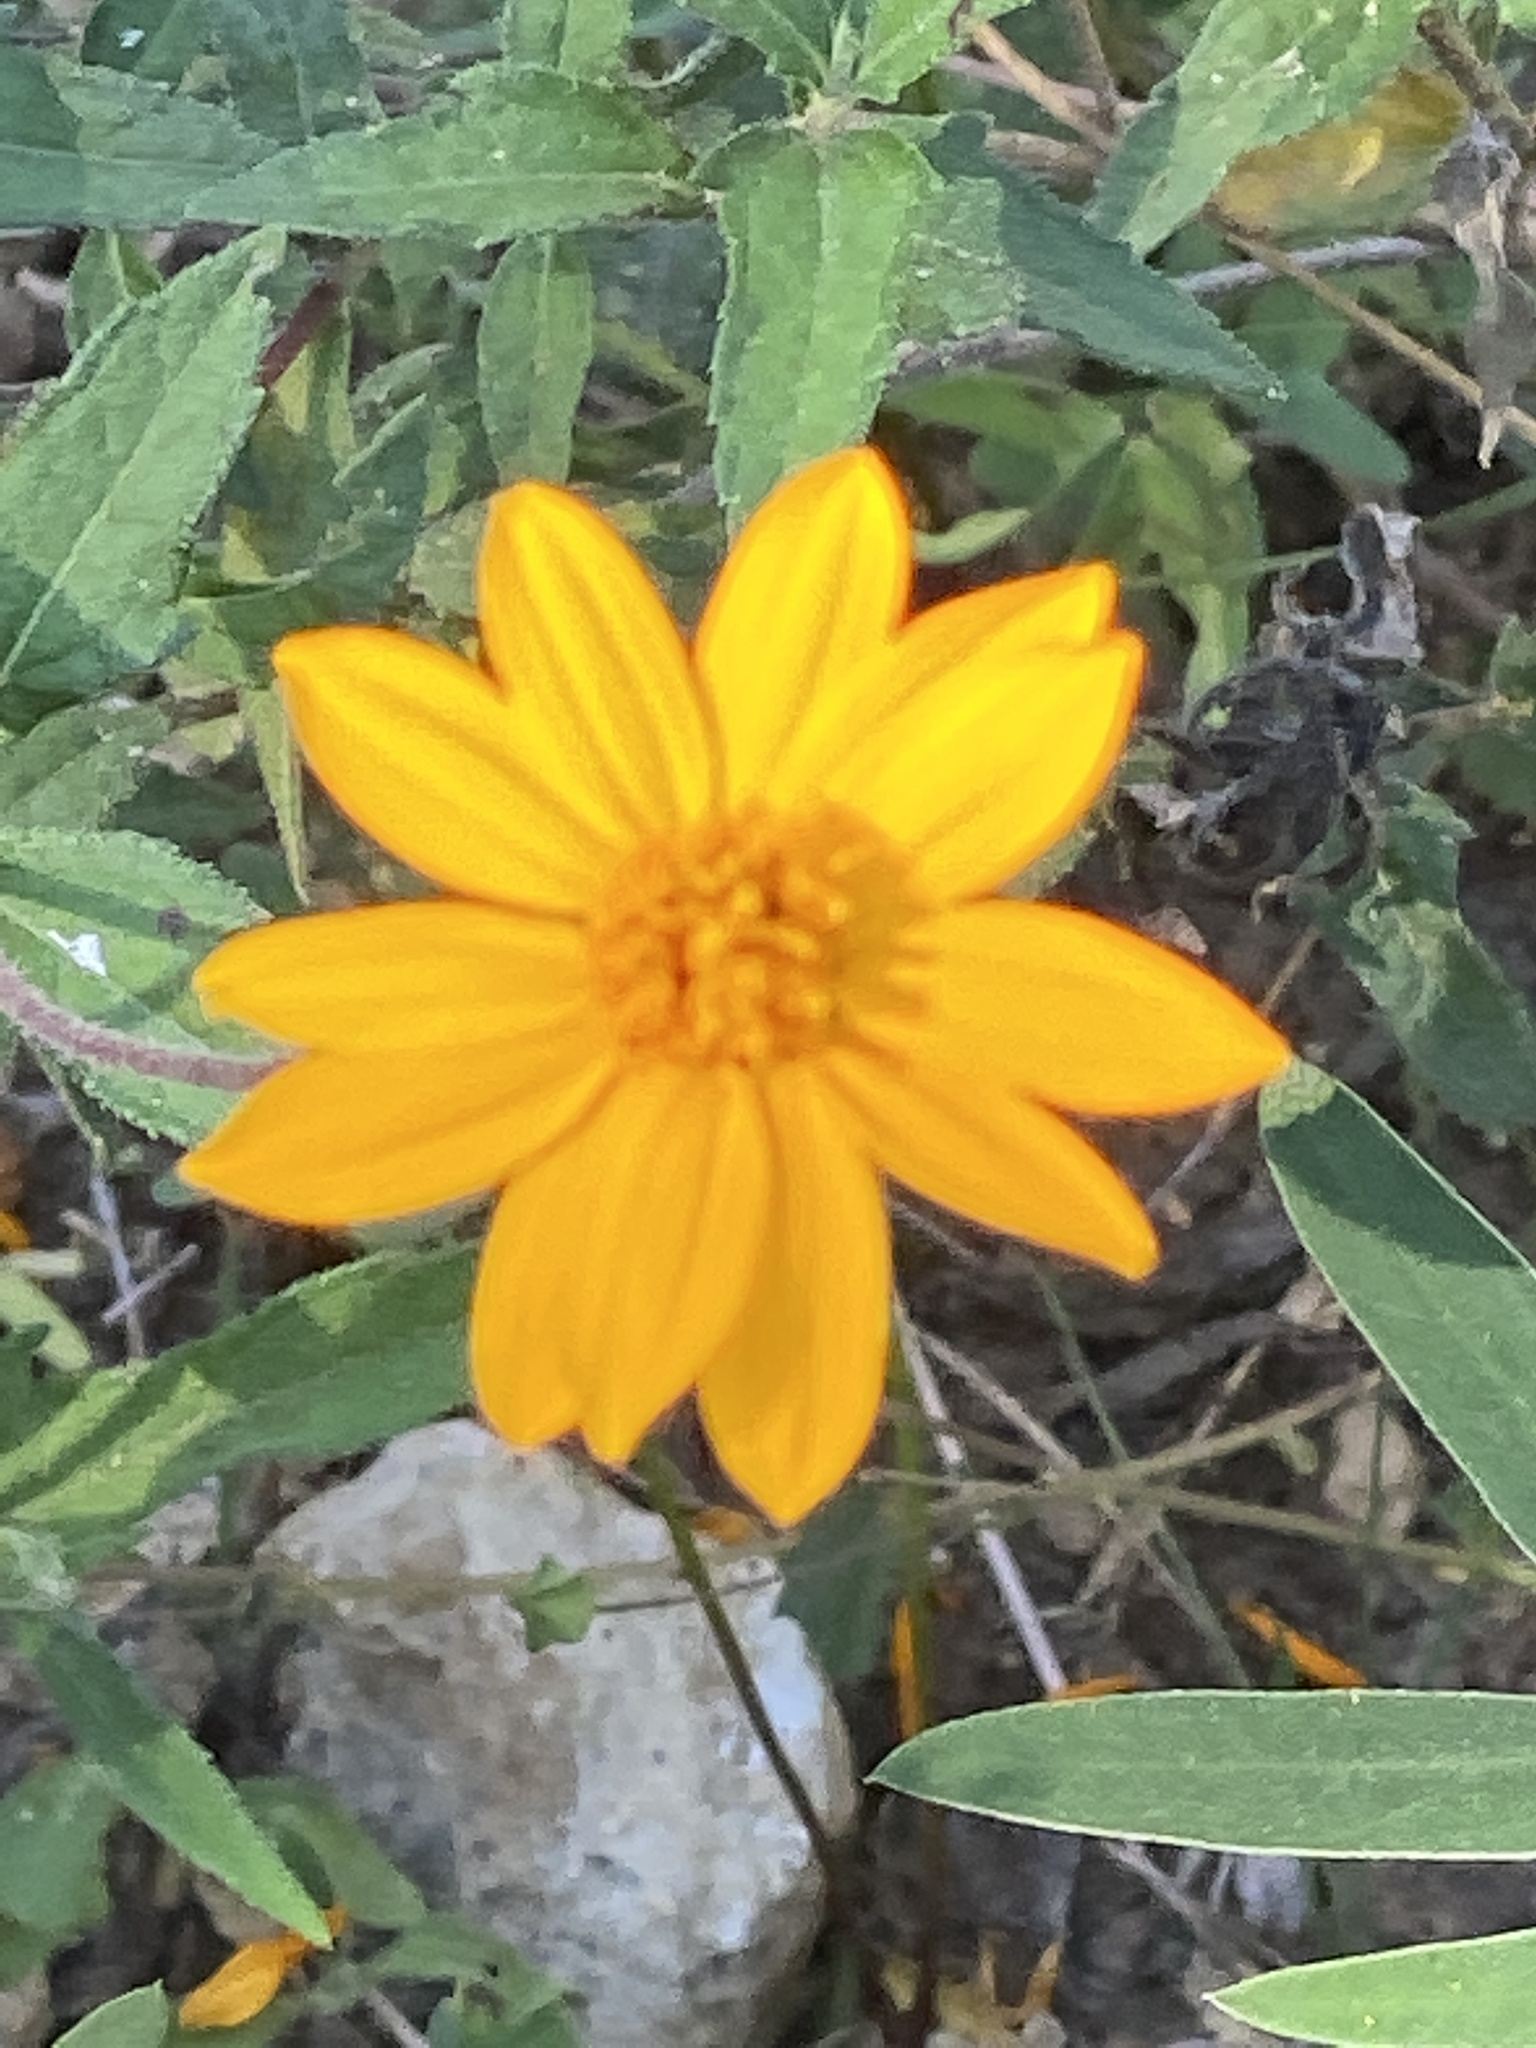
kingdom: Plantae
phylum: Tracheophyta
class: Magnoliopsida
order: Asterales
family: Asteraceae
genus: Wedelia
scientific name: Wedelia acapulcensis
